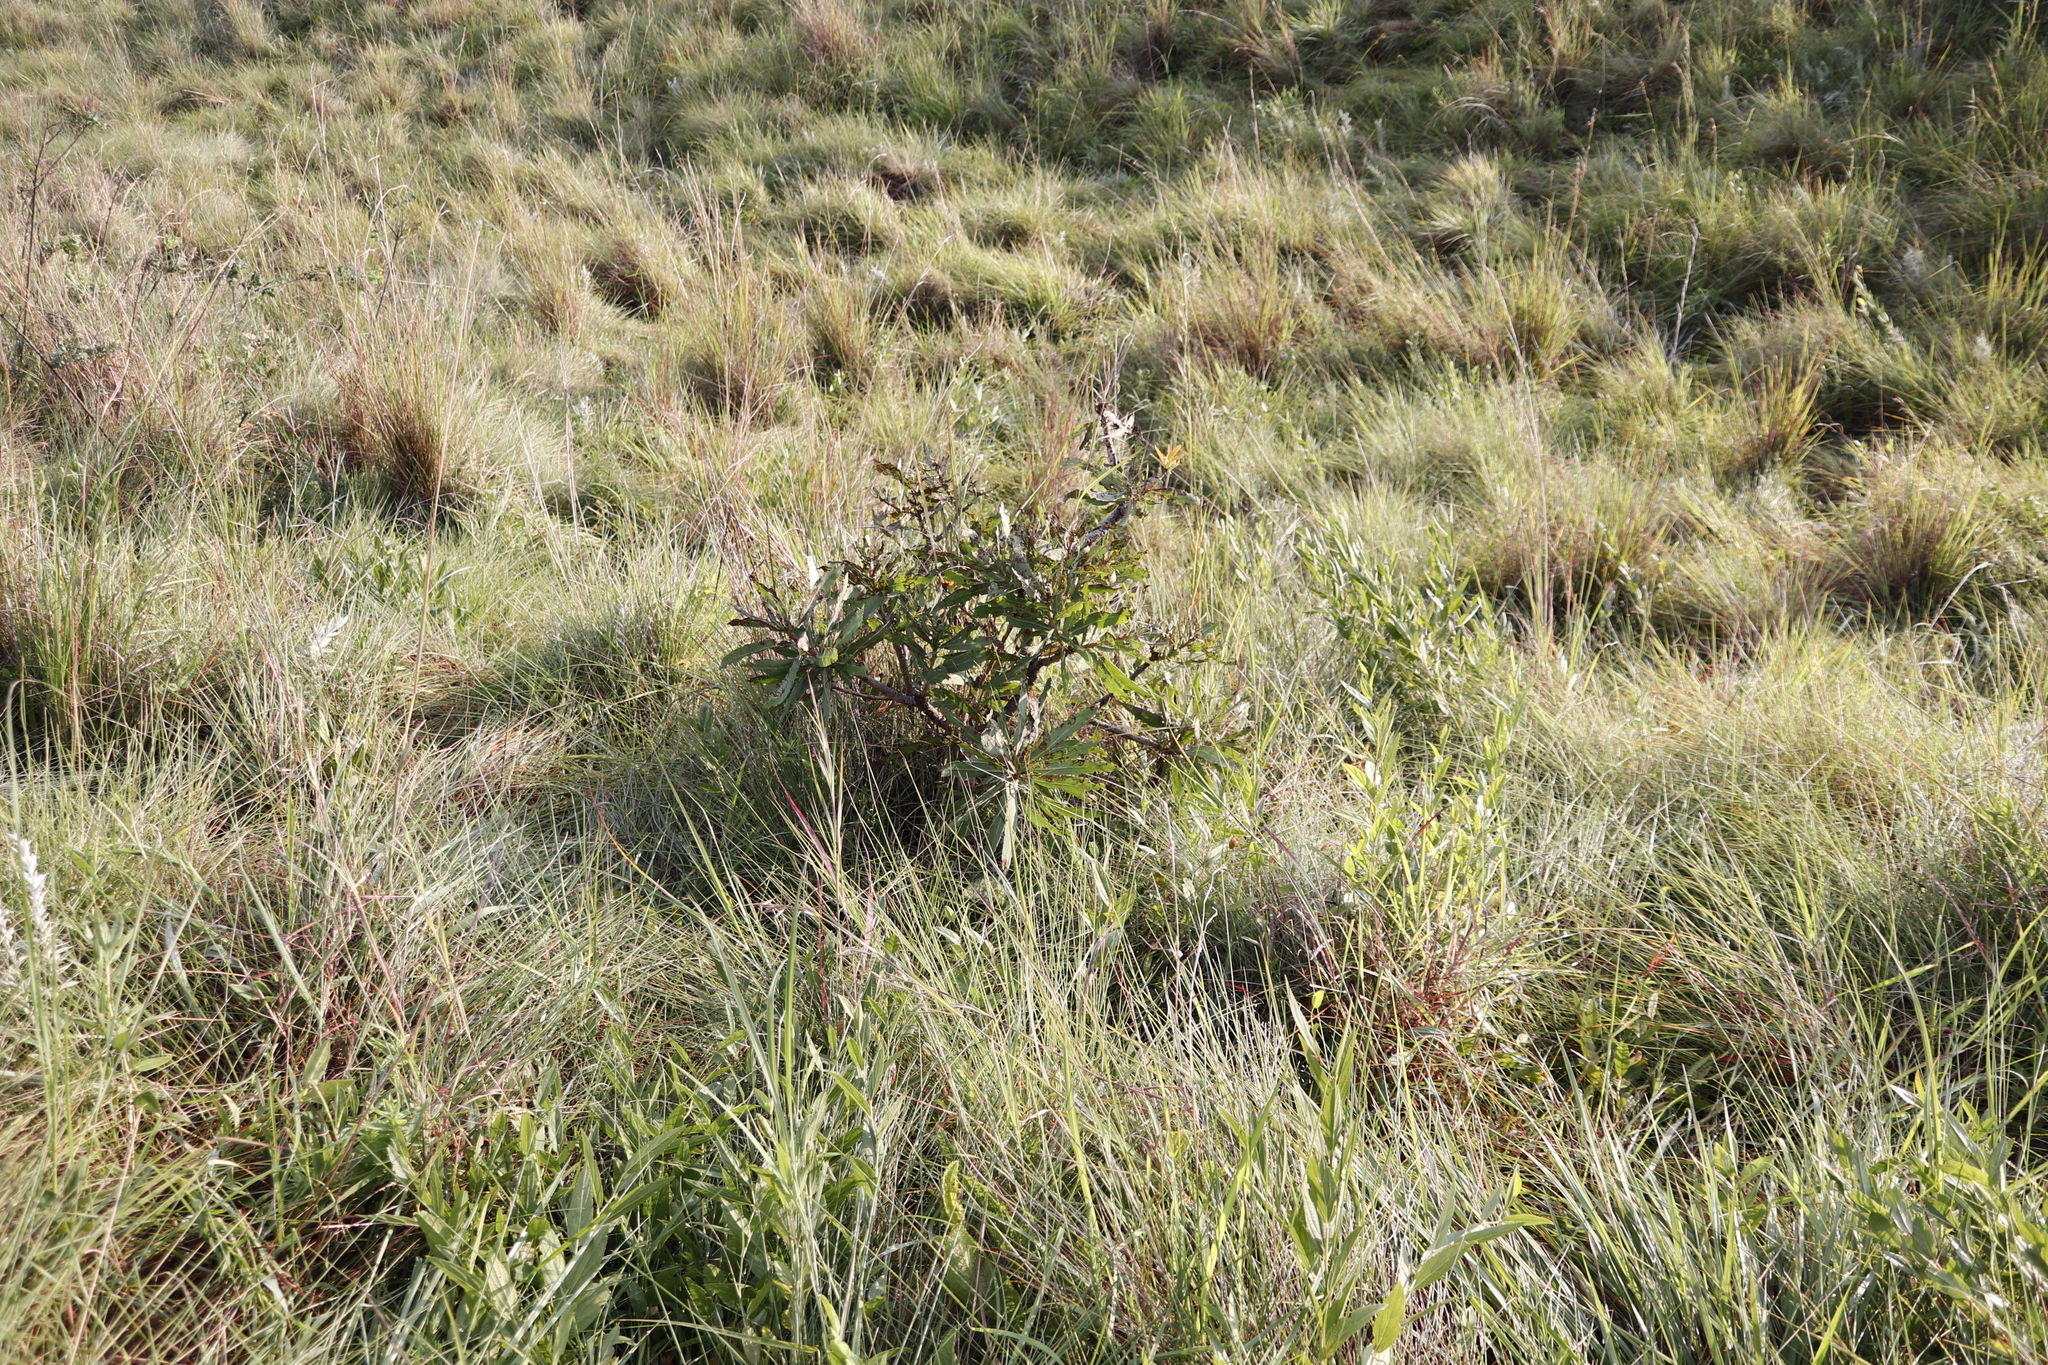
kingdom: Plantae
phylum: Tracheophyta
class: Magnoliopsida
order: Proteales
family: Proteaceae
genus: Protea
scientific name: Protea caffra
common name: Common sugarbush
